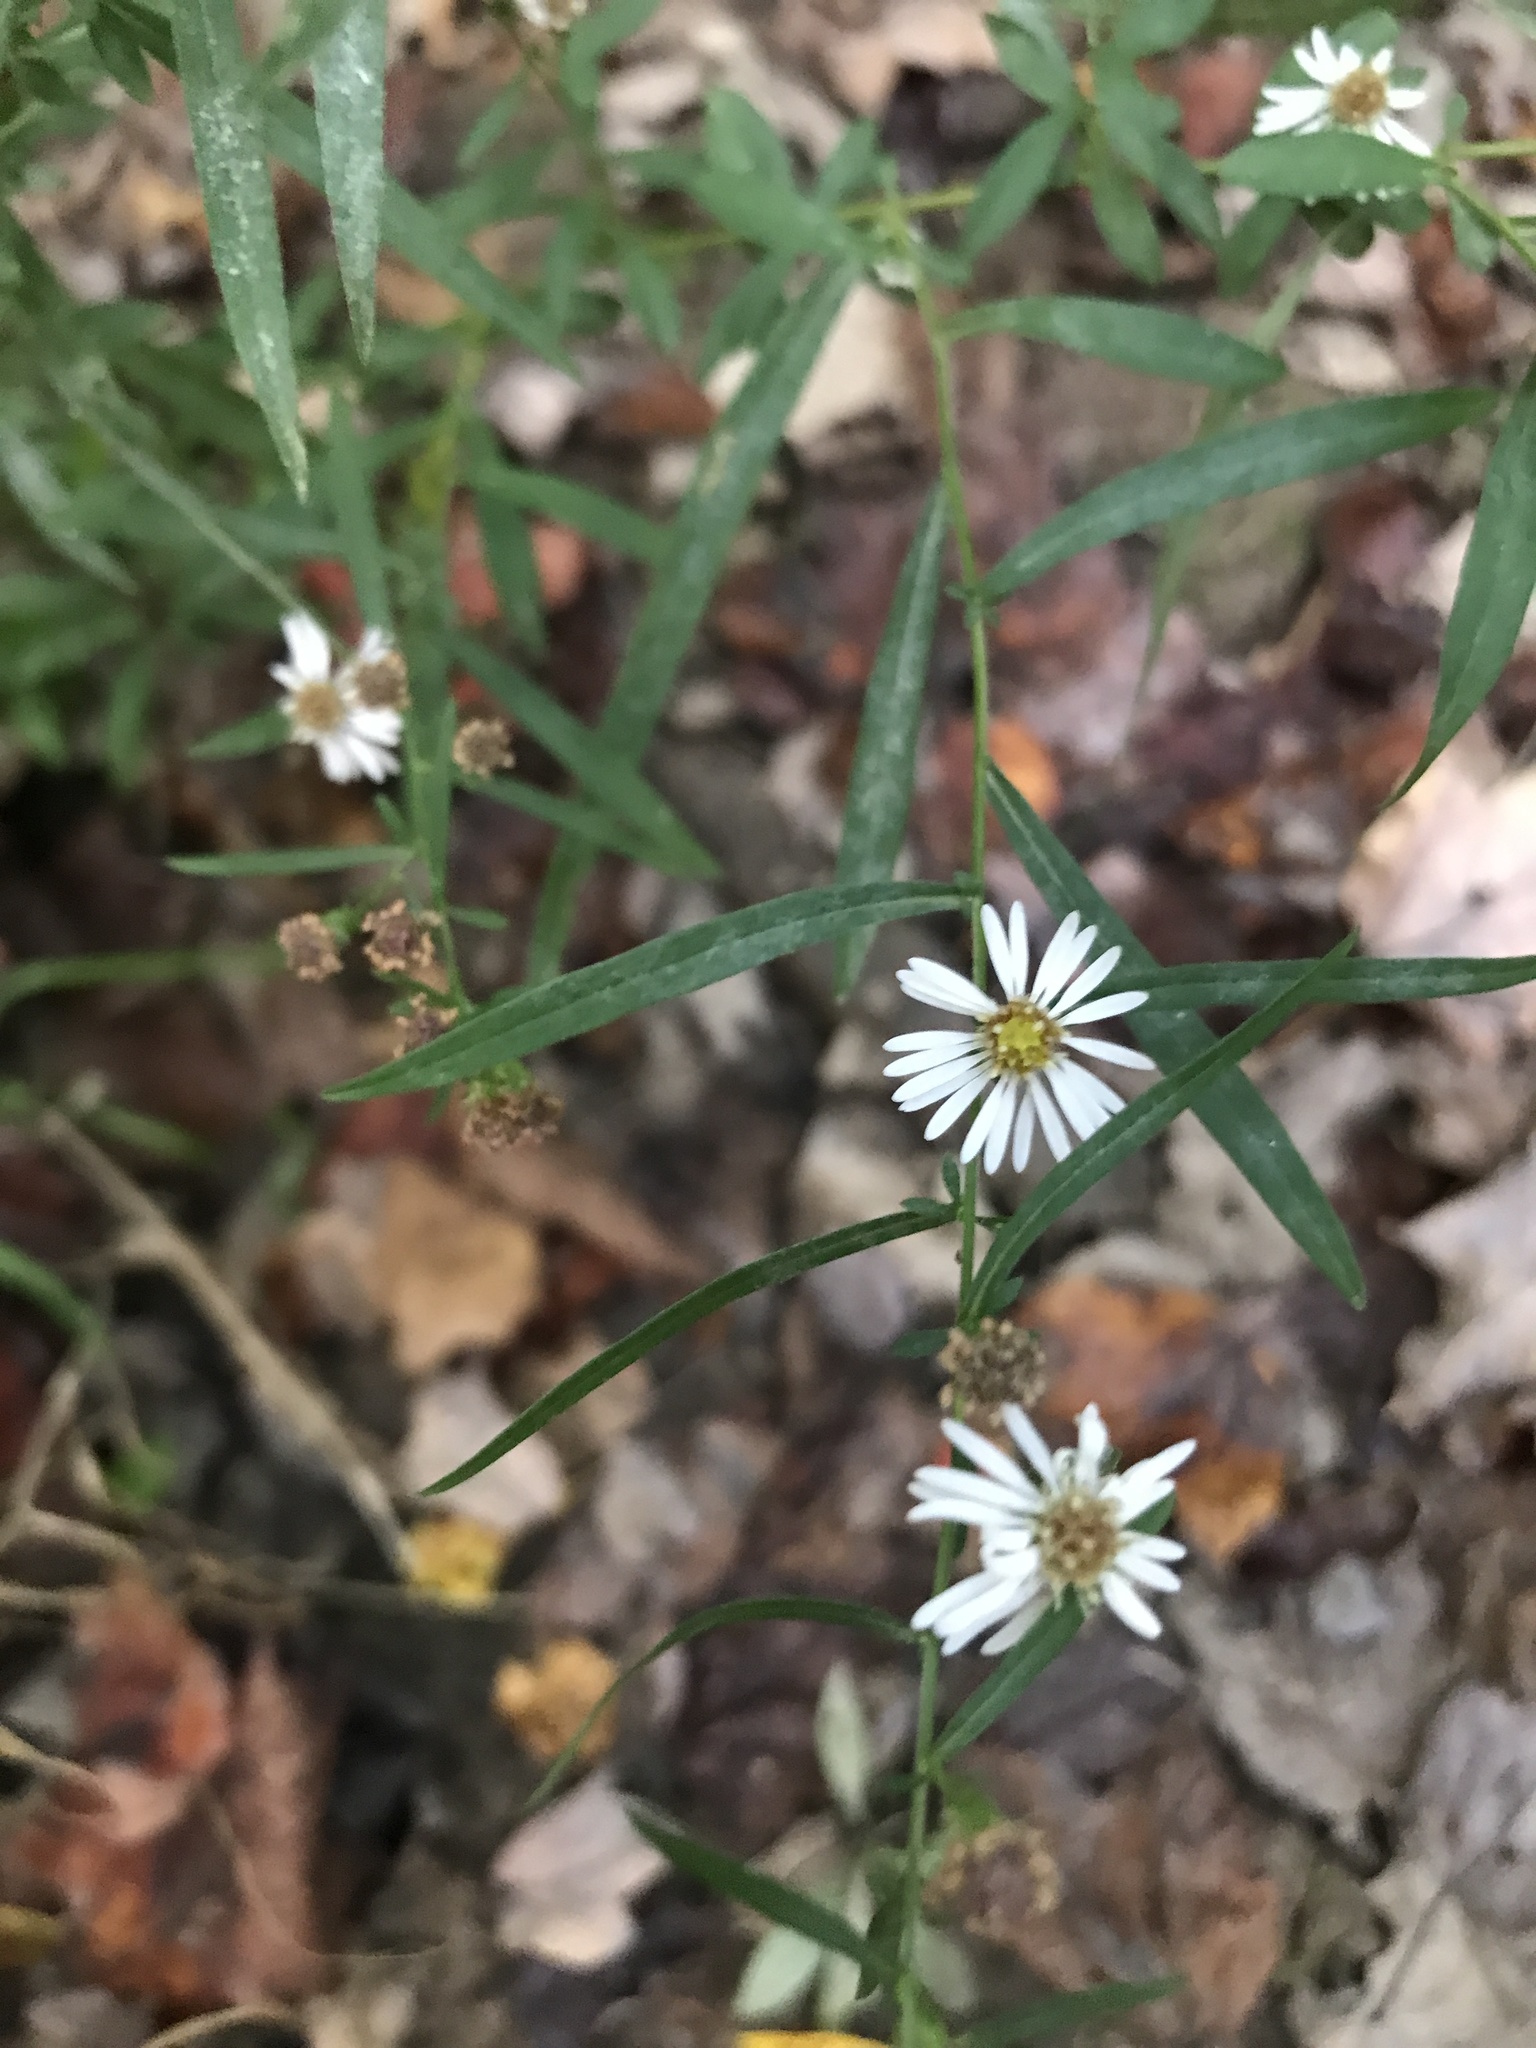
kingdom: Plantae
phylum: Tracheophyta
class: Magnoliopsida
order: Asterales
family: Asteraceae
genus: Symphyotrichum
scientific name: Symphyotrichum lanceolatum
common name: Panicled aster
